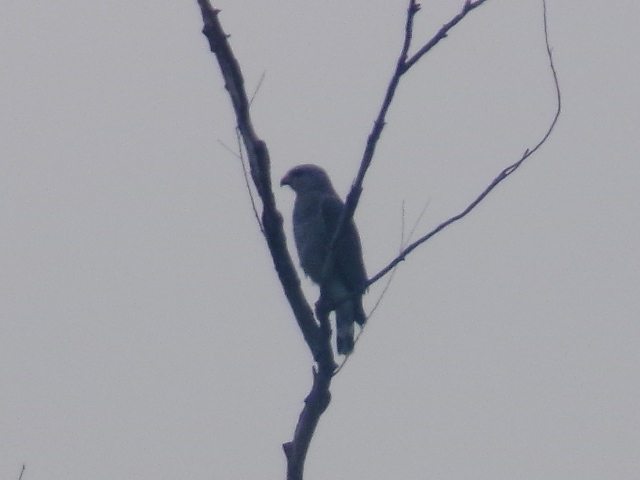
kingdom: Animalia
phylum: Chordata
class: Aves
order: Accipitriformes
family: Accipitridae
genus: Buteo
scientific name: Buteo nitidus
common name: Grey-lined hawk
